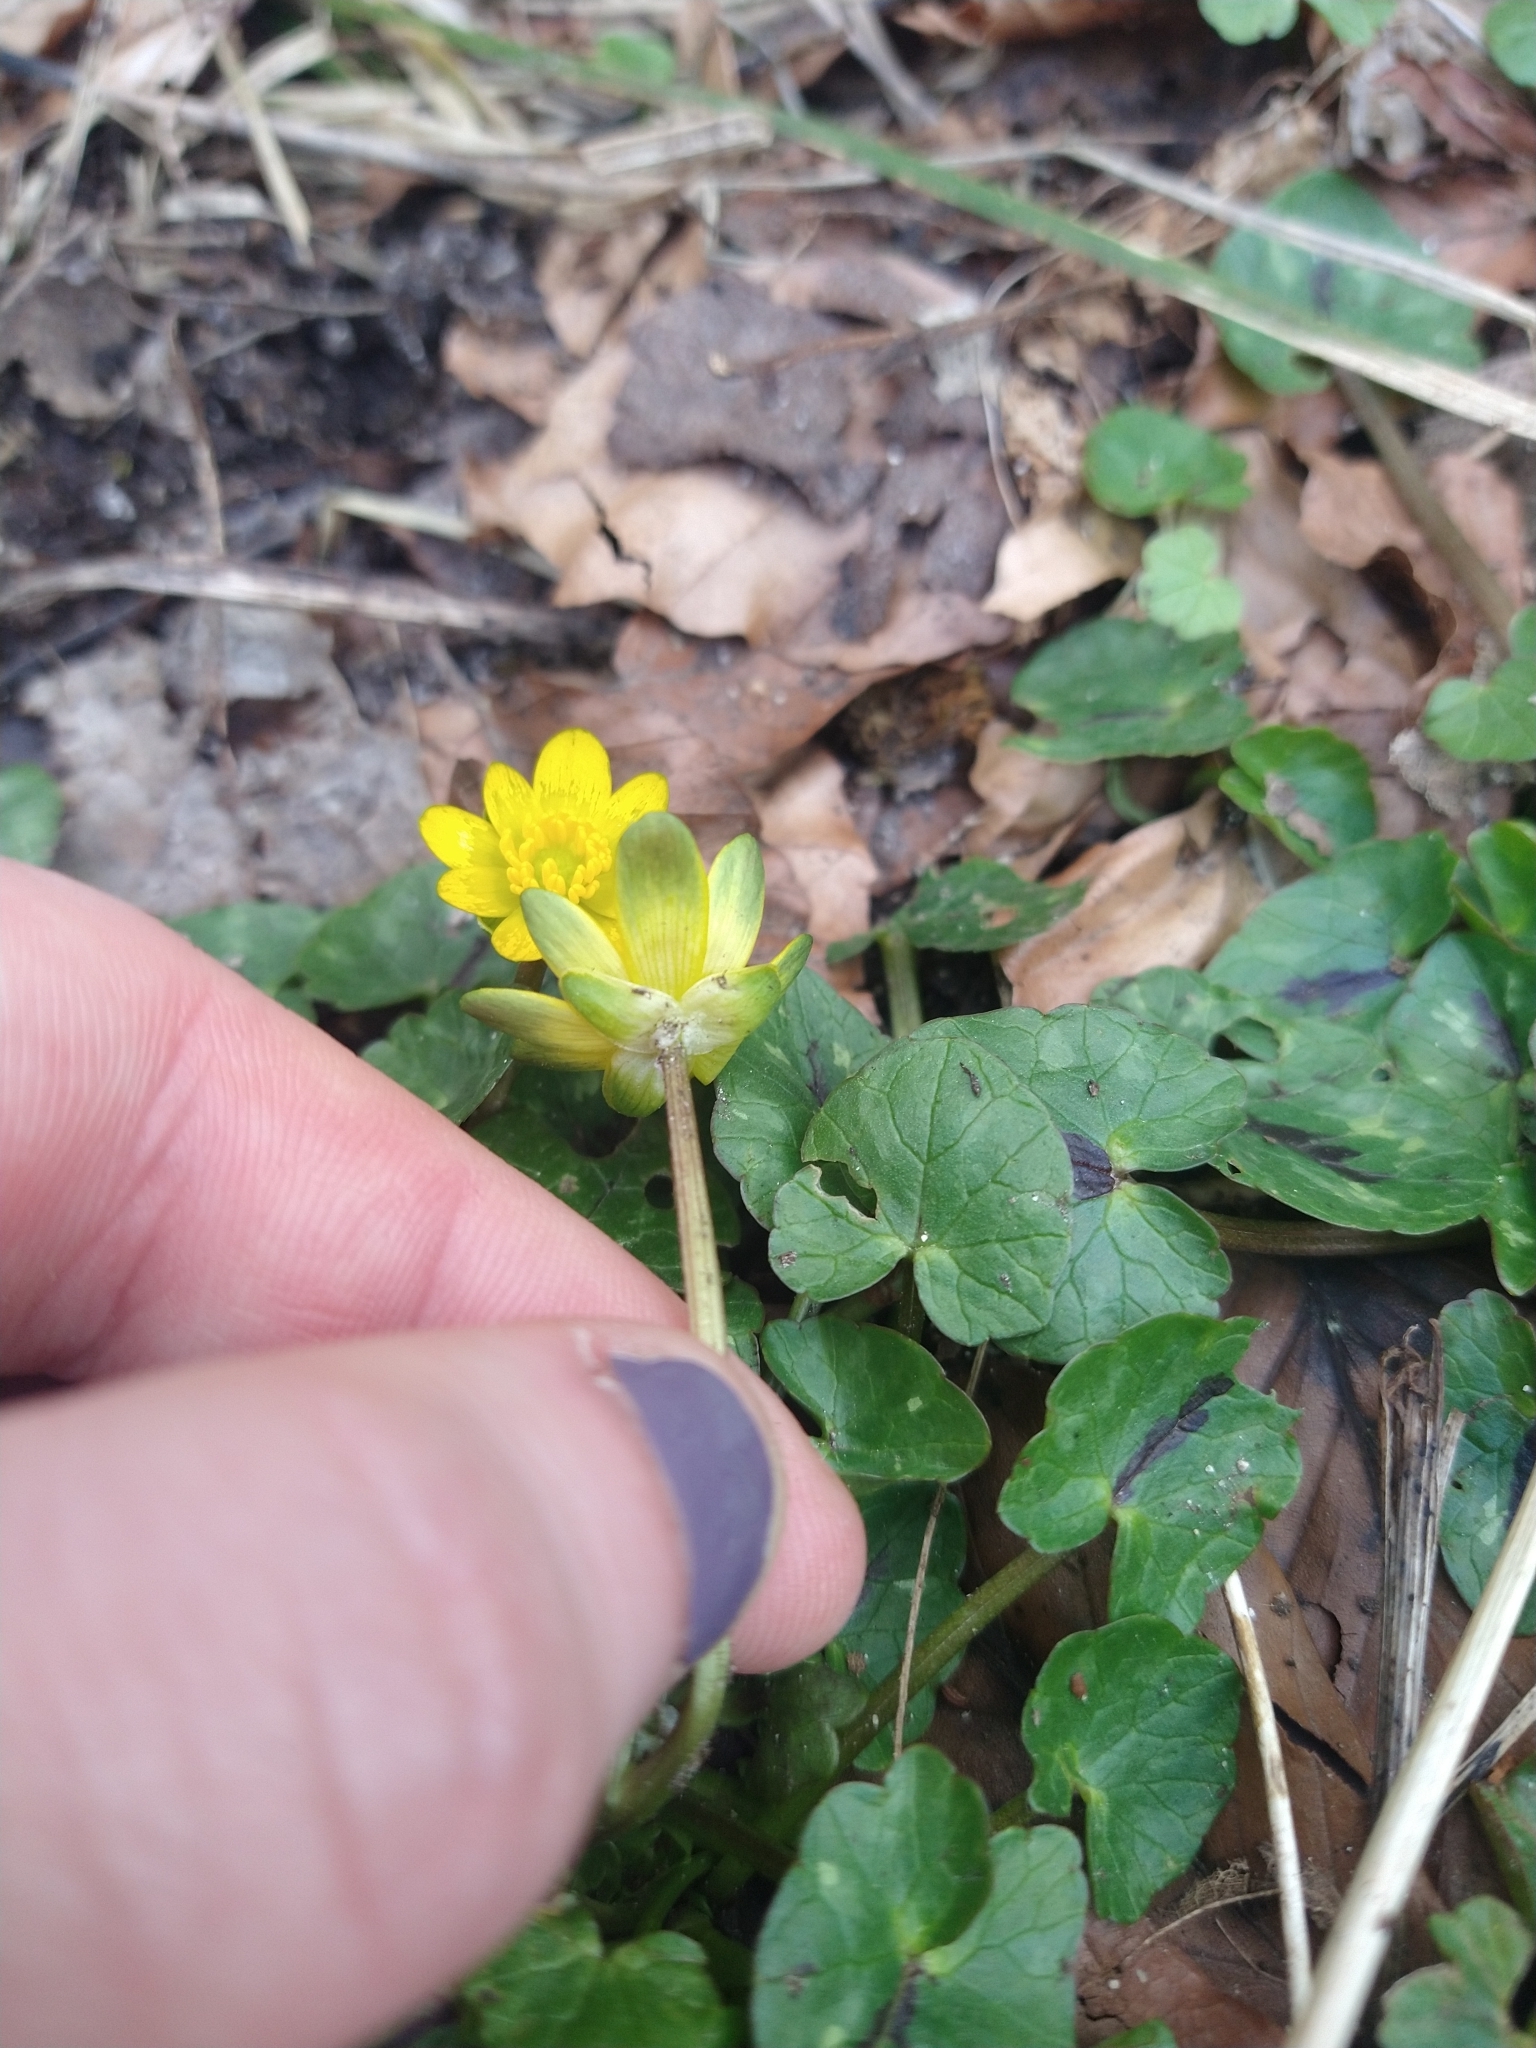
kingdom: Plantae
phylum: Tracheophyta
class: Magnoliopsida
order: Ranunculales
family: Ranunculaceae
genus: Ficaria
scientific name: Ficaria verna
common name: Lesser celandine
